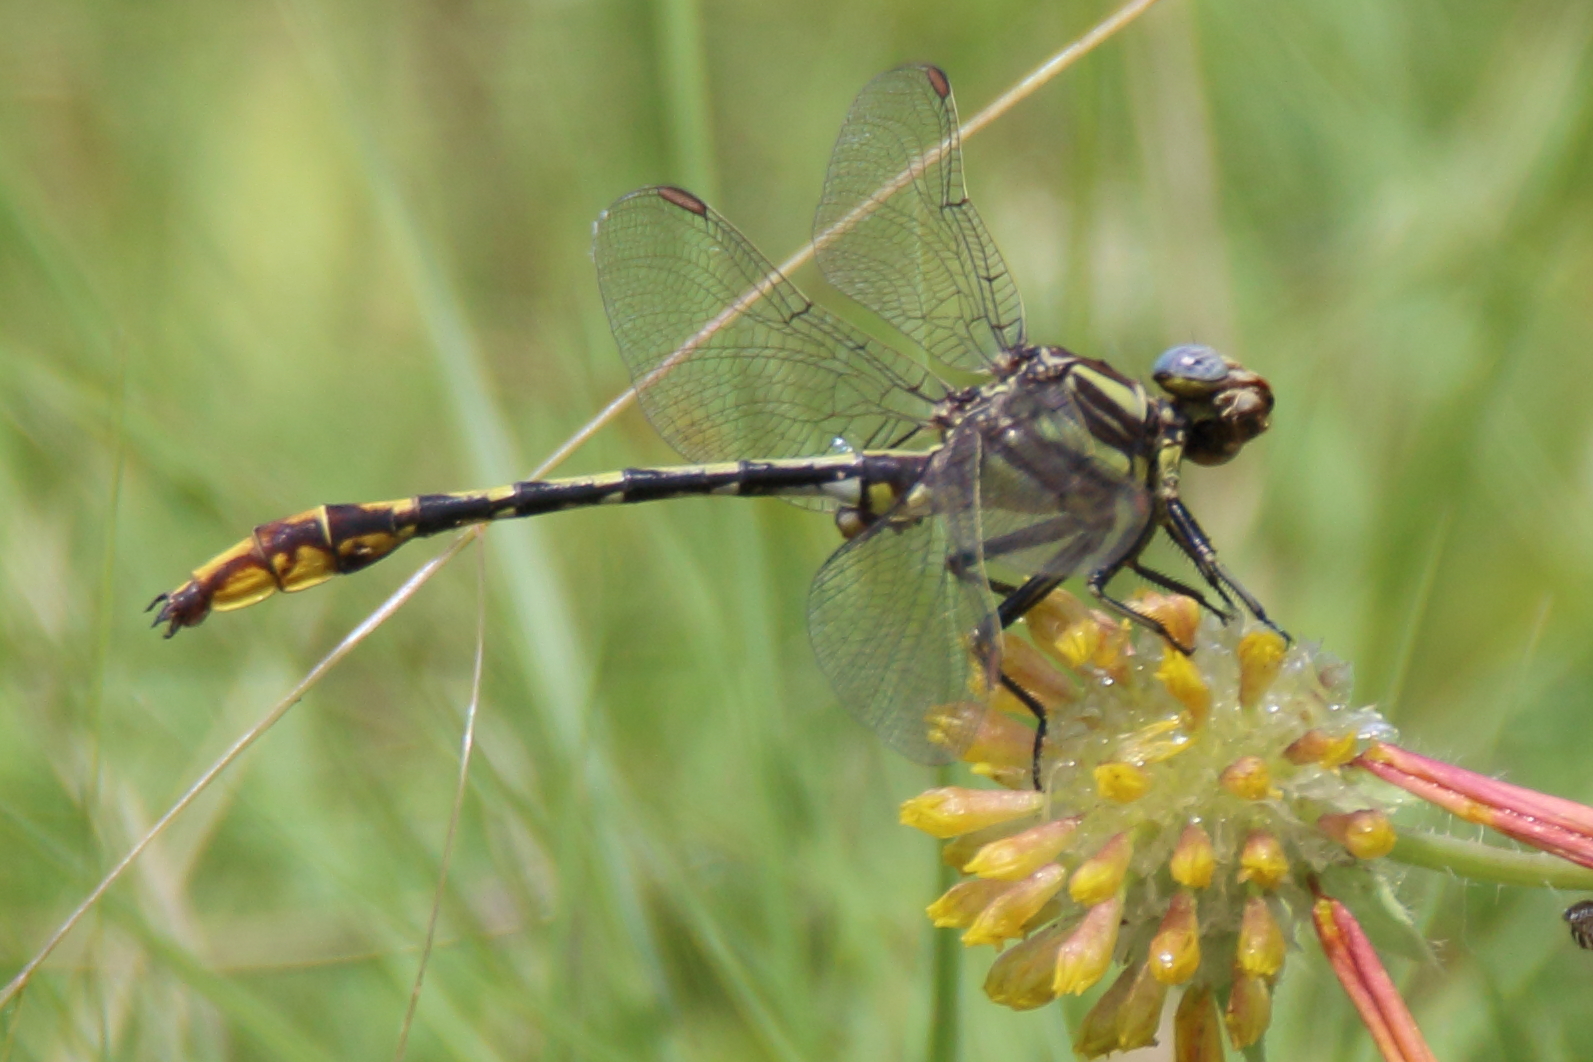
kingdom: Animalia
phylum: Arthropoda
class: Insecta
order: Odonata
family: Gomphidae
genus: Phanogomphus
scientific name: Phanogomphus militaris
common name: Sulphur-tipped clubtail
